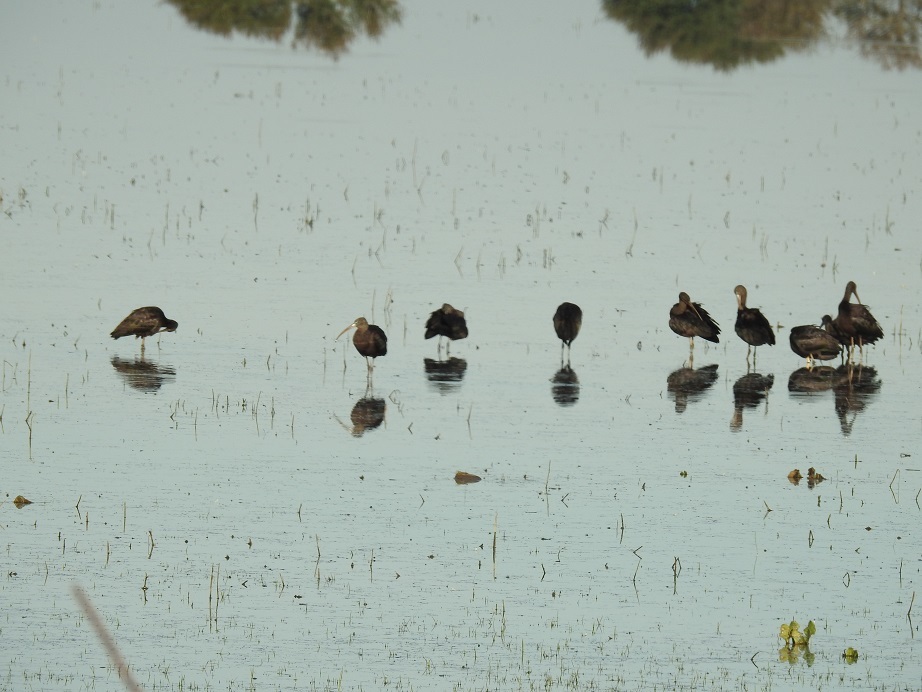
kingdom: Animalia
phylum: Chordata
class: Aves
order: Pelecaniformes
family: Threskiornithidae
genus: Plegadis
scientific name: Plegadis falcinellus
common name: Glossy ibis
